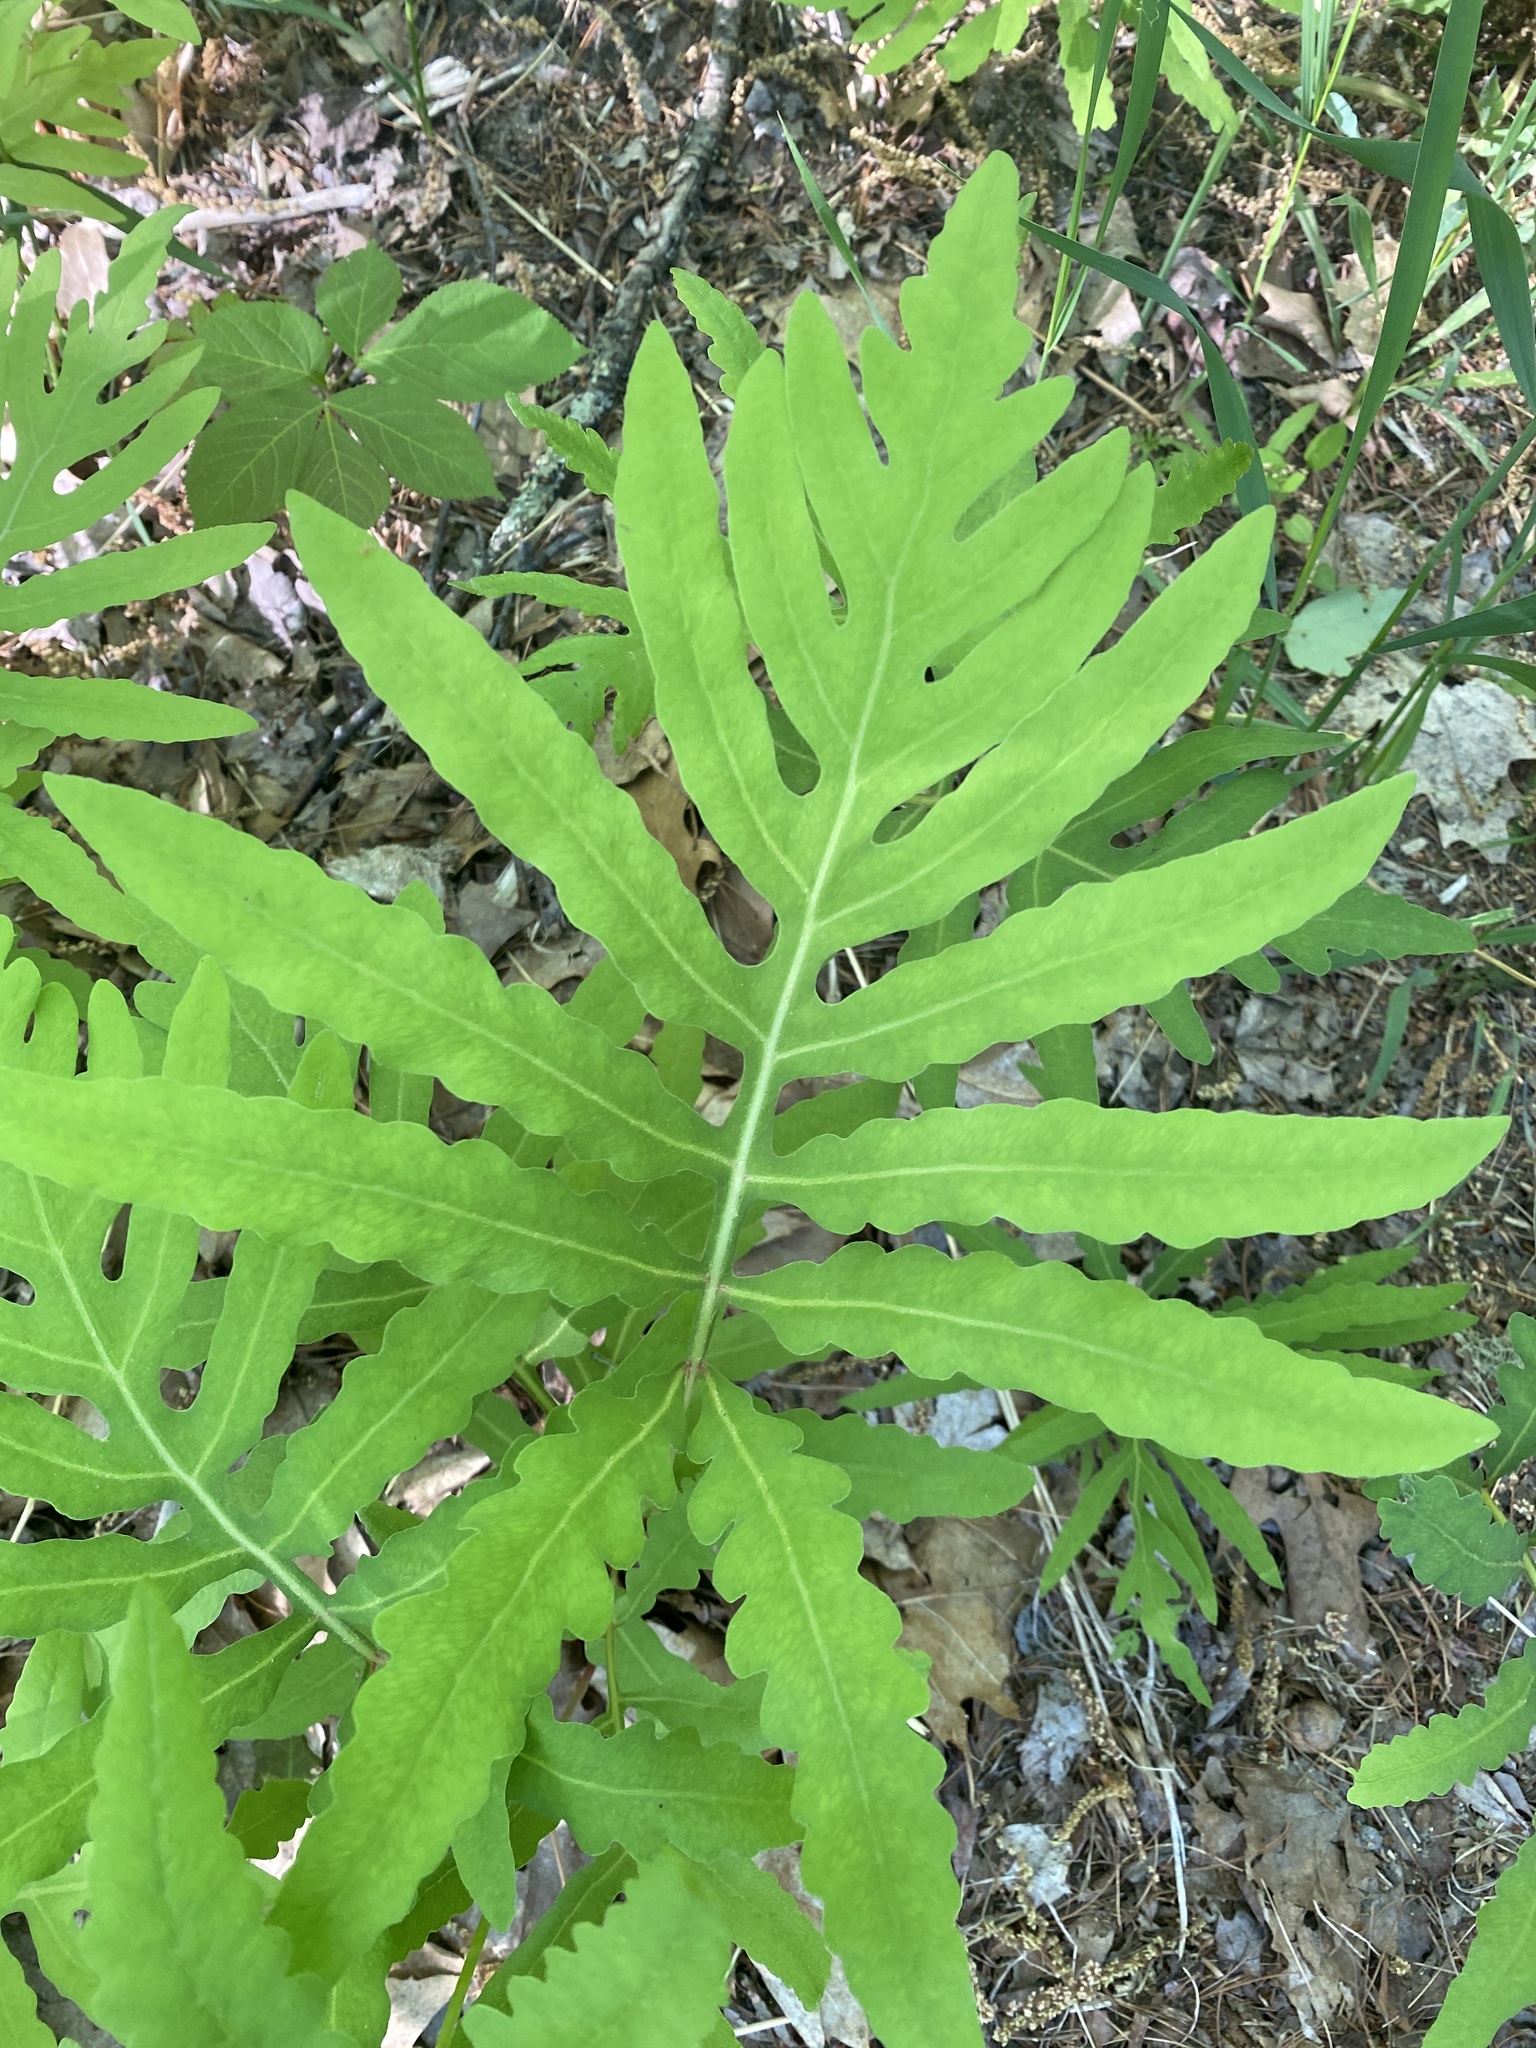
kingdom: Plantae
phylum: Tracheophyta
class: Polypodiopsida
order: Polypodiales
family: Onocleaceae
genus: Onoclea
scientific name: Onoclea sensibilis
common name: Sensitive fern
